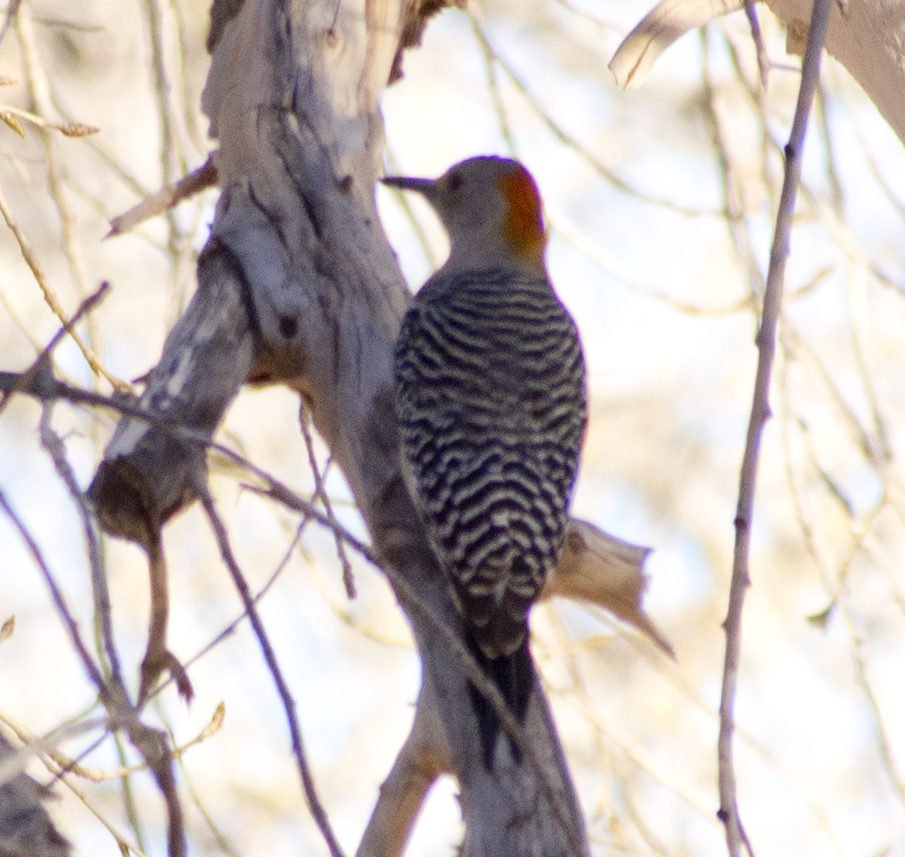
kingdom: Animalia
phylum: Chordata
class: Aves
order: Piciformes
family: Picidae
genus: Melanerpes
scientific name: Melanerpes aurifrons
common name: Golden-fronted woodpecker
